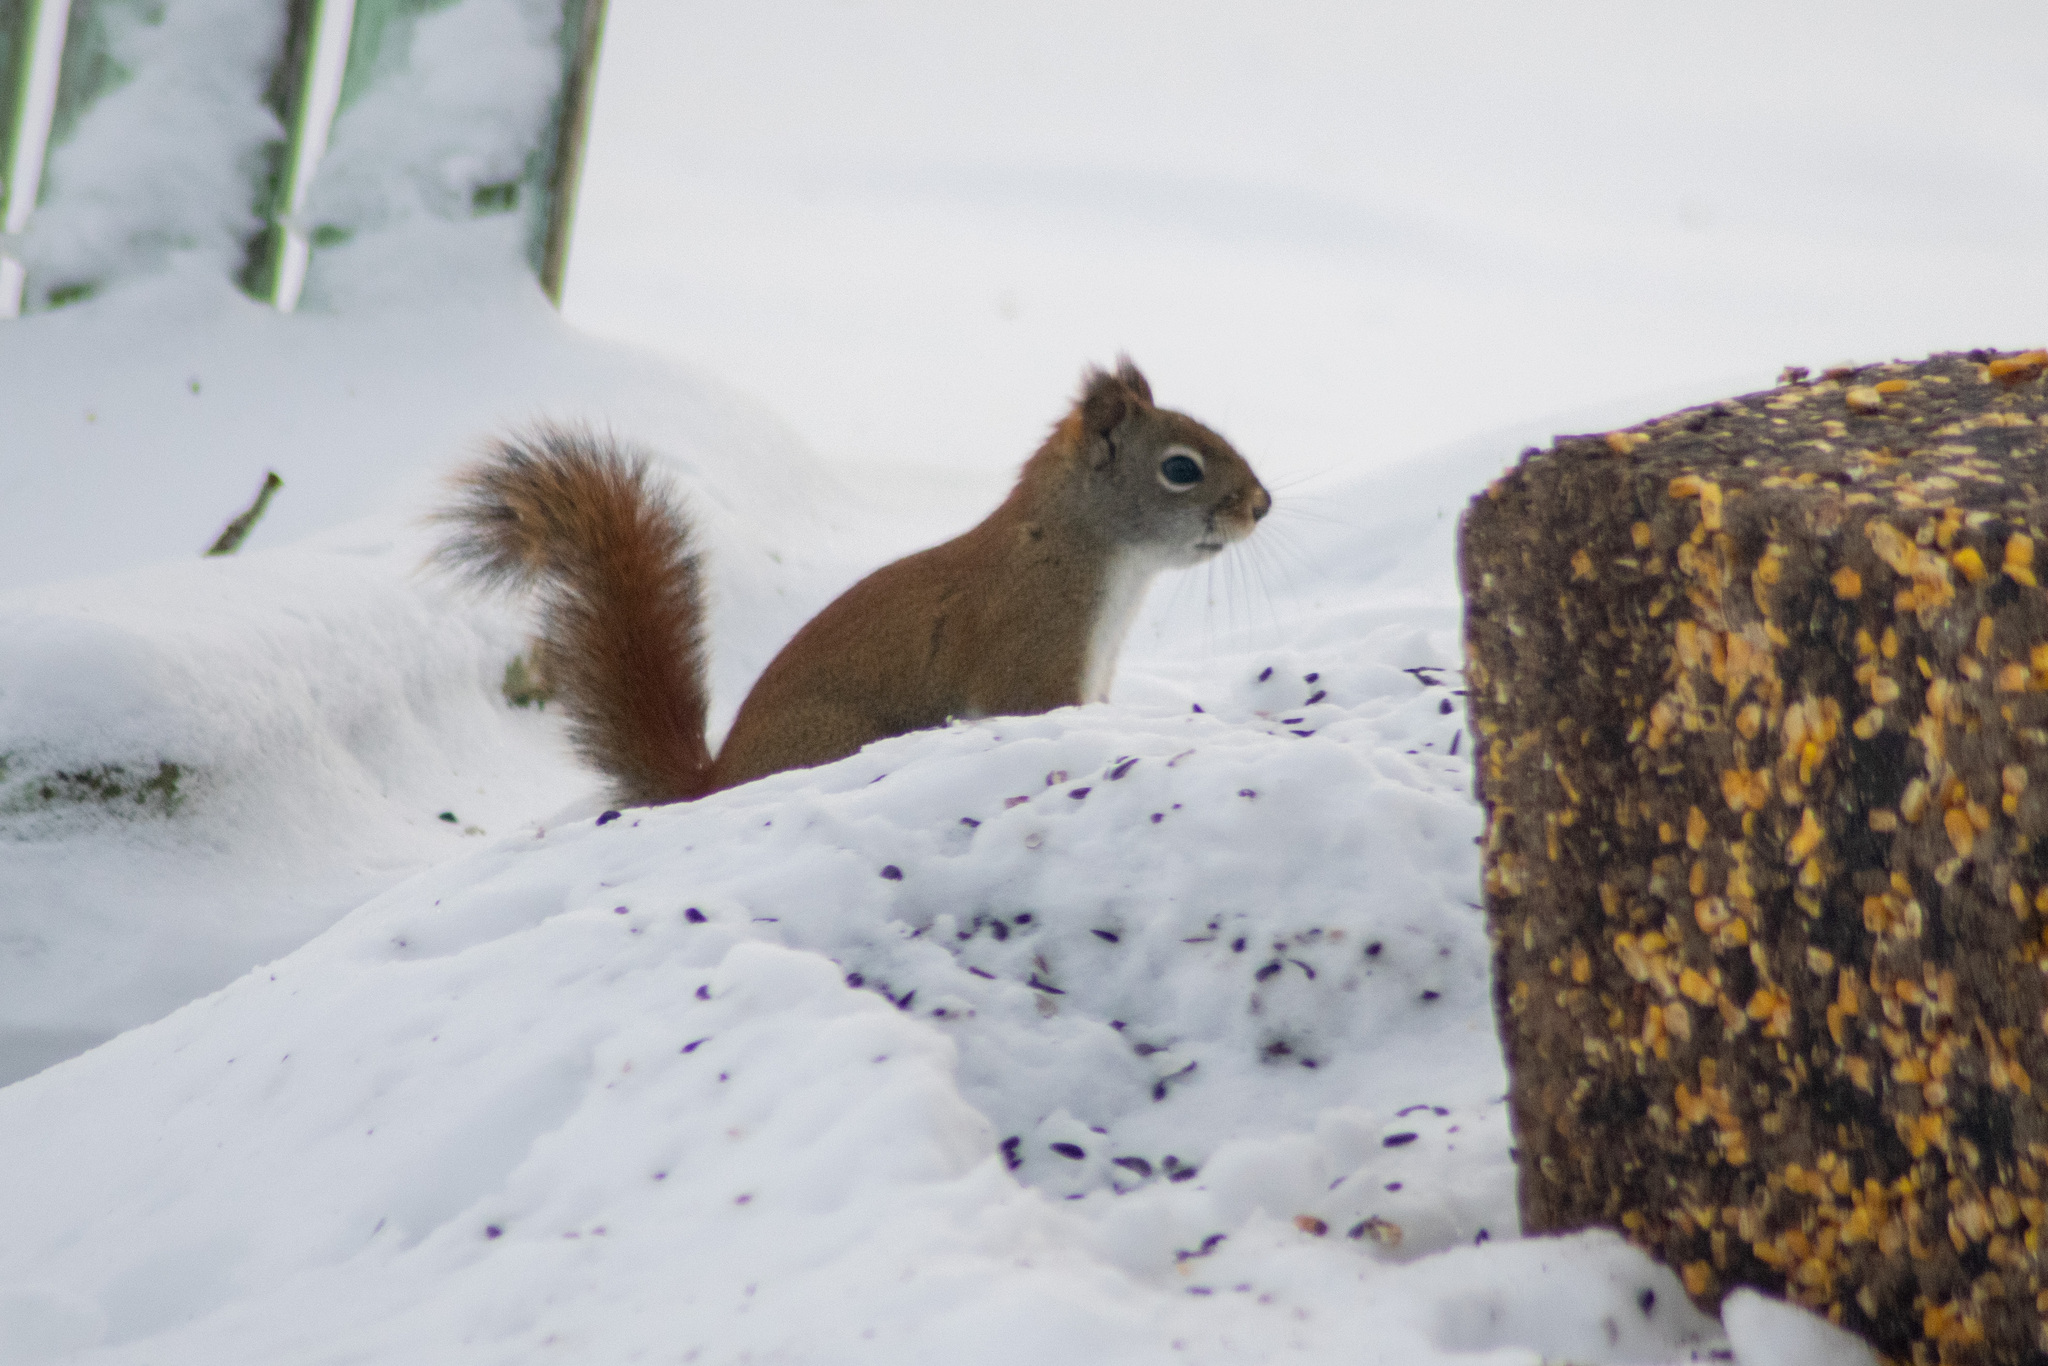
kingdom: Animalia
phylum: Chordata
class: Mammalia
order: Rodentia
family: Sciuridae
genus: Tamiasciurus
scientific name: Tamiasciurus hudsonicus
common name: Red squirrel
